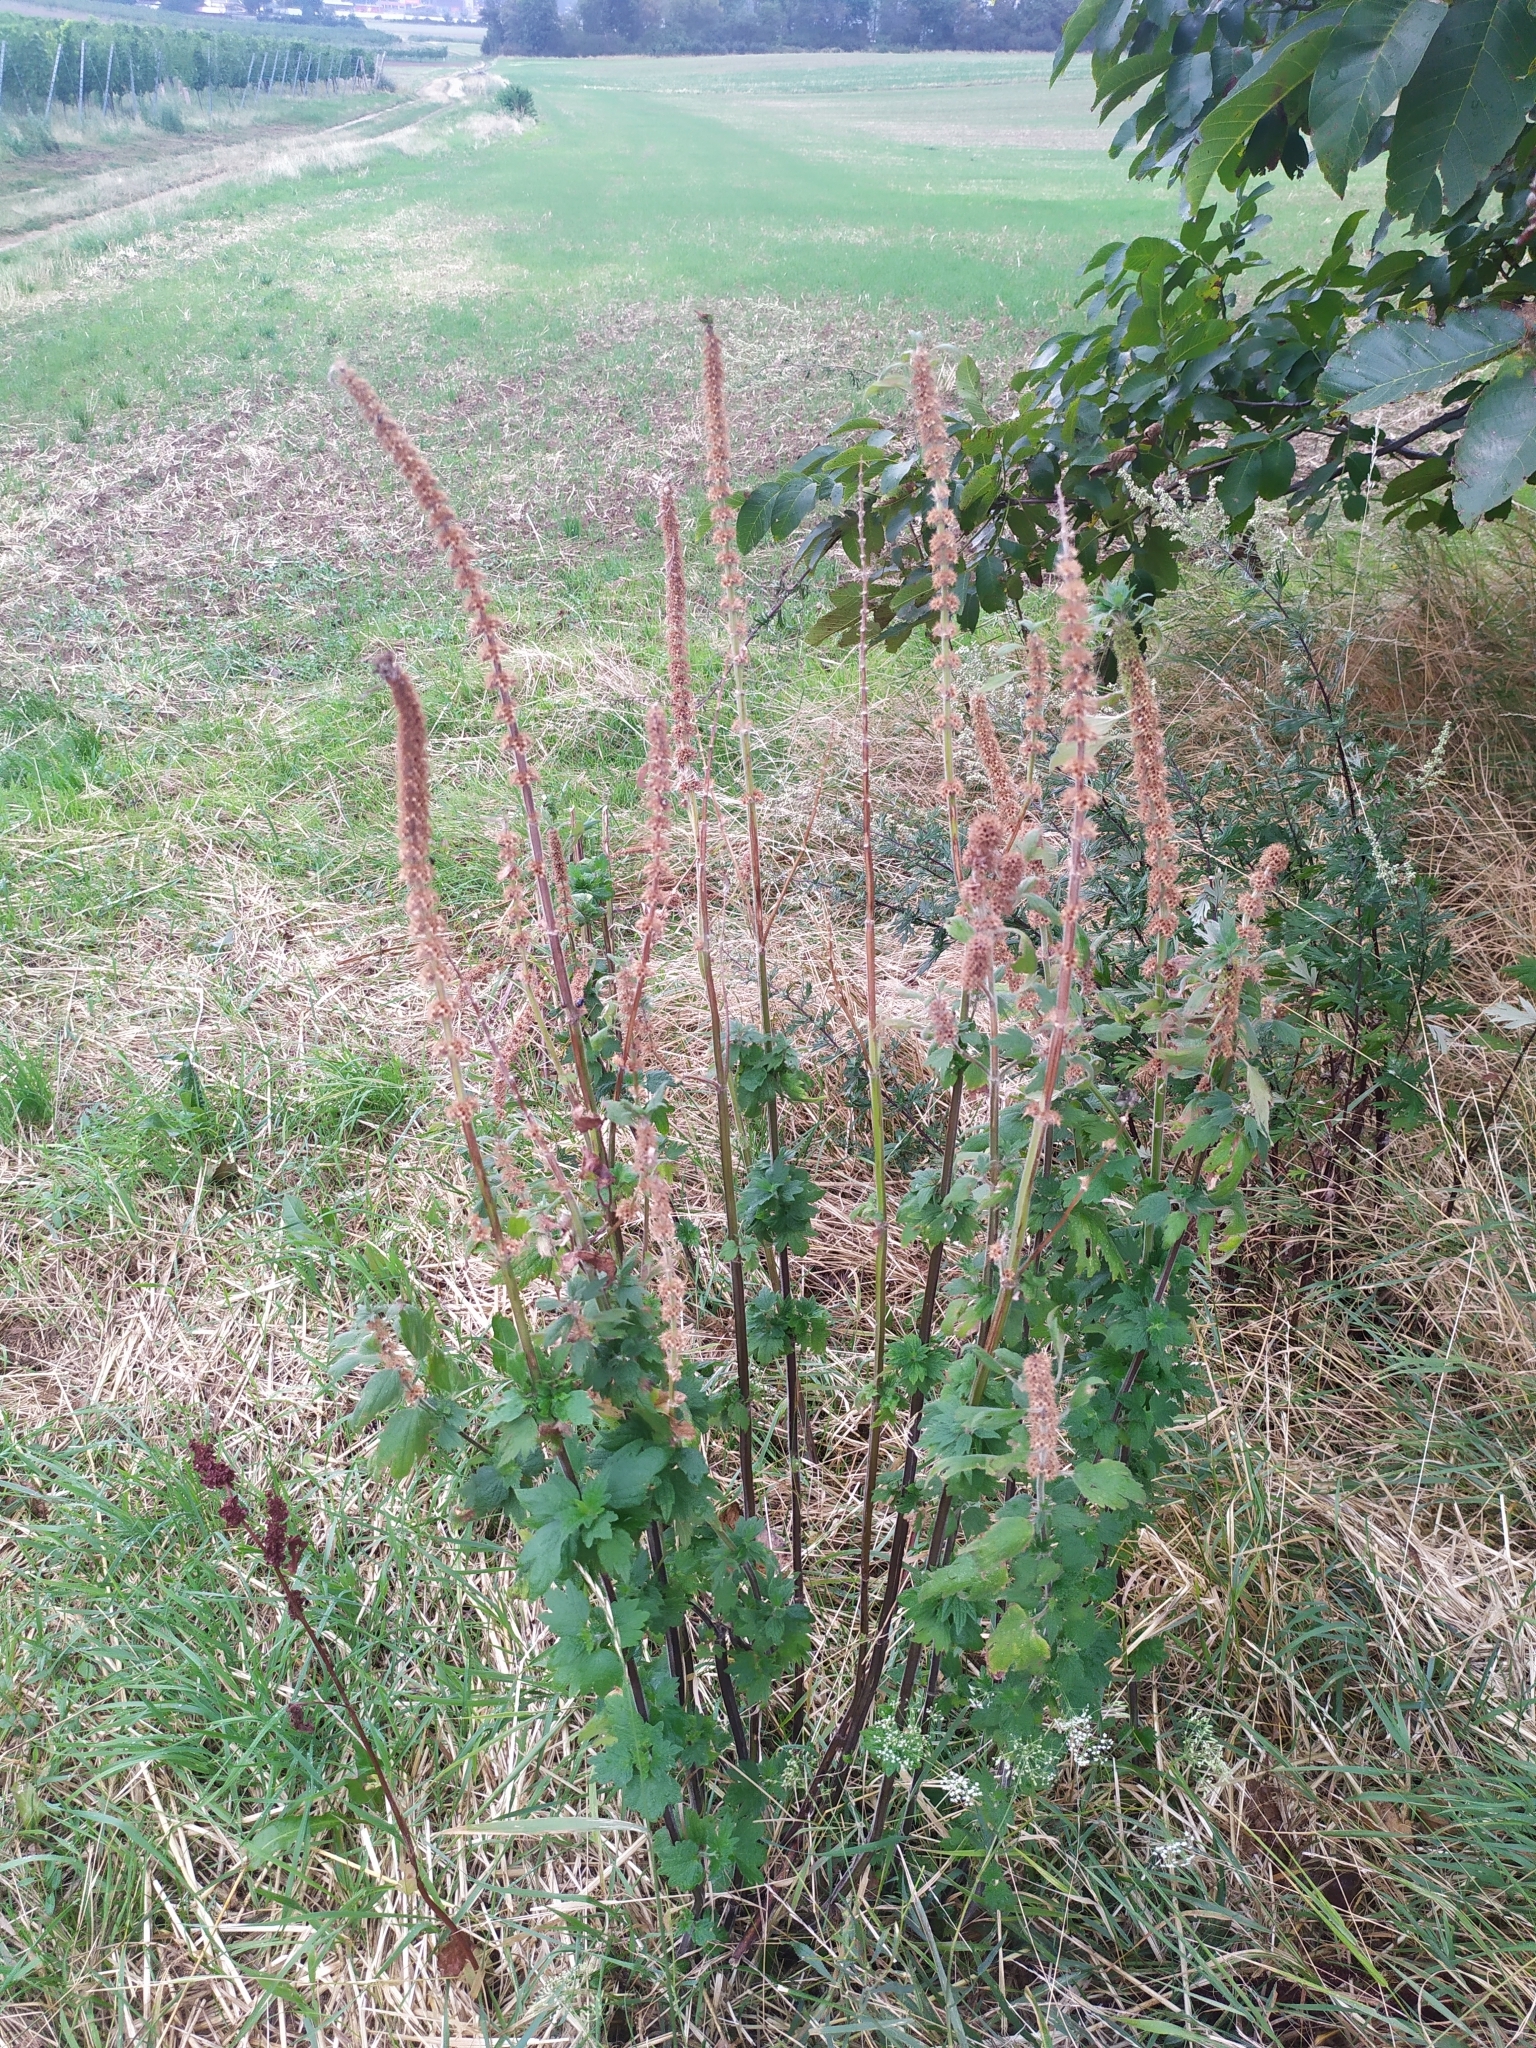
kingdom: Plantae
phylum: Tracheophyta
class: Magnoliopsida
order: Lamiales
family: Lamiaceae
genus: Leonurus
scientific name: Leonurus quinquelobatus
